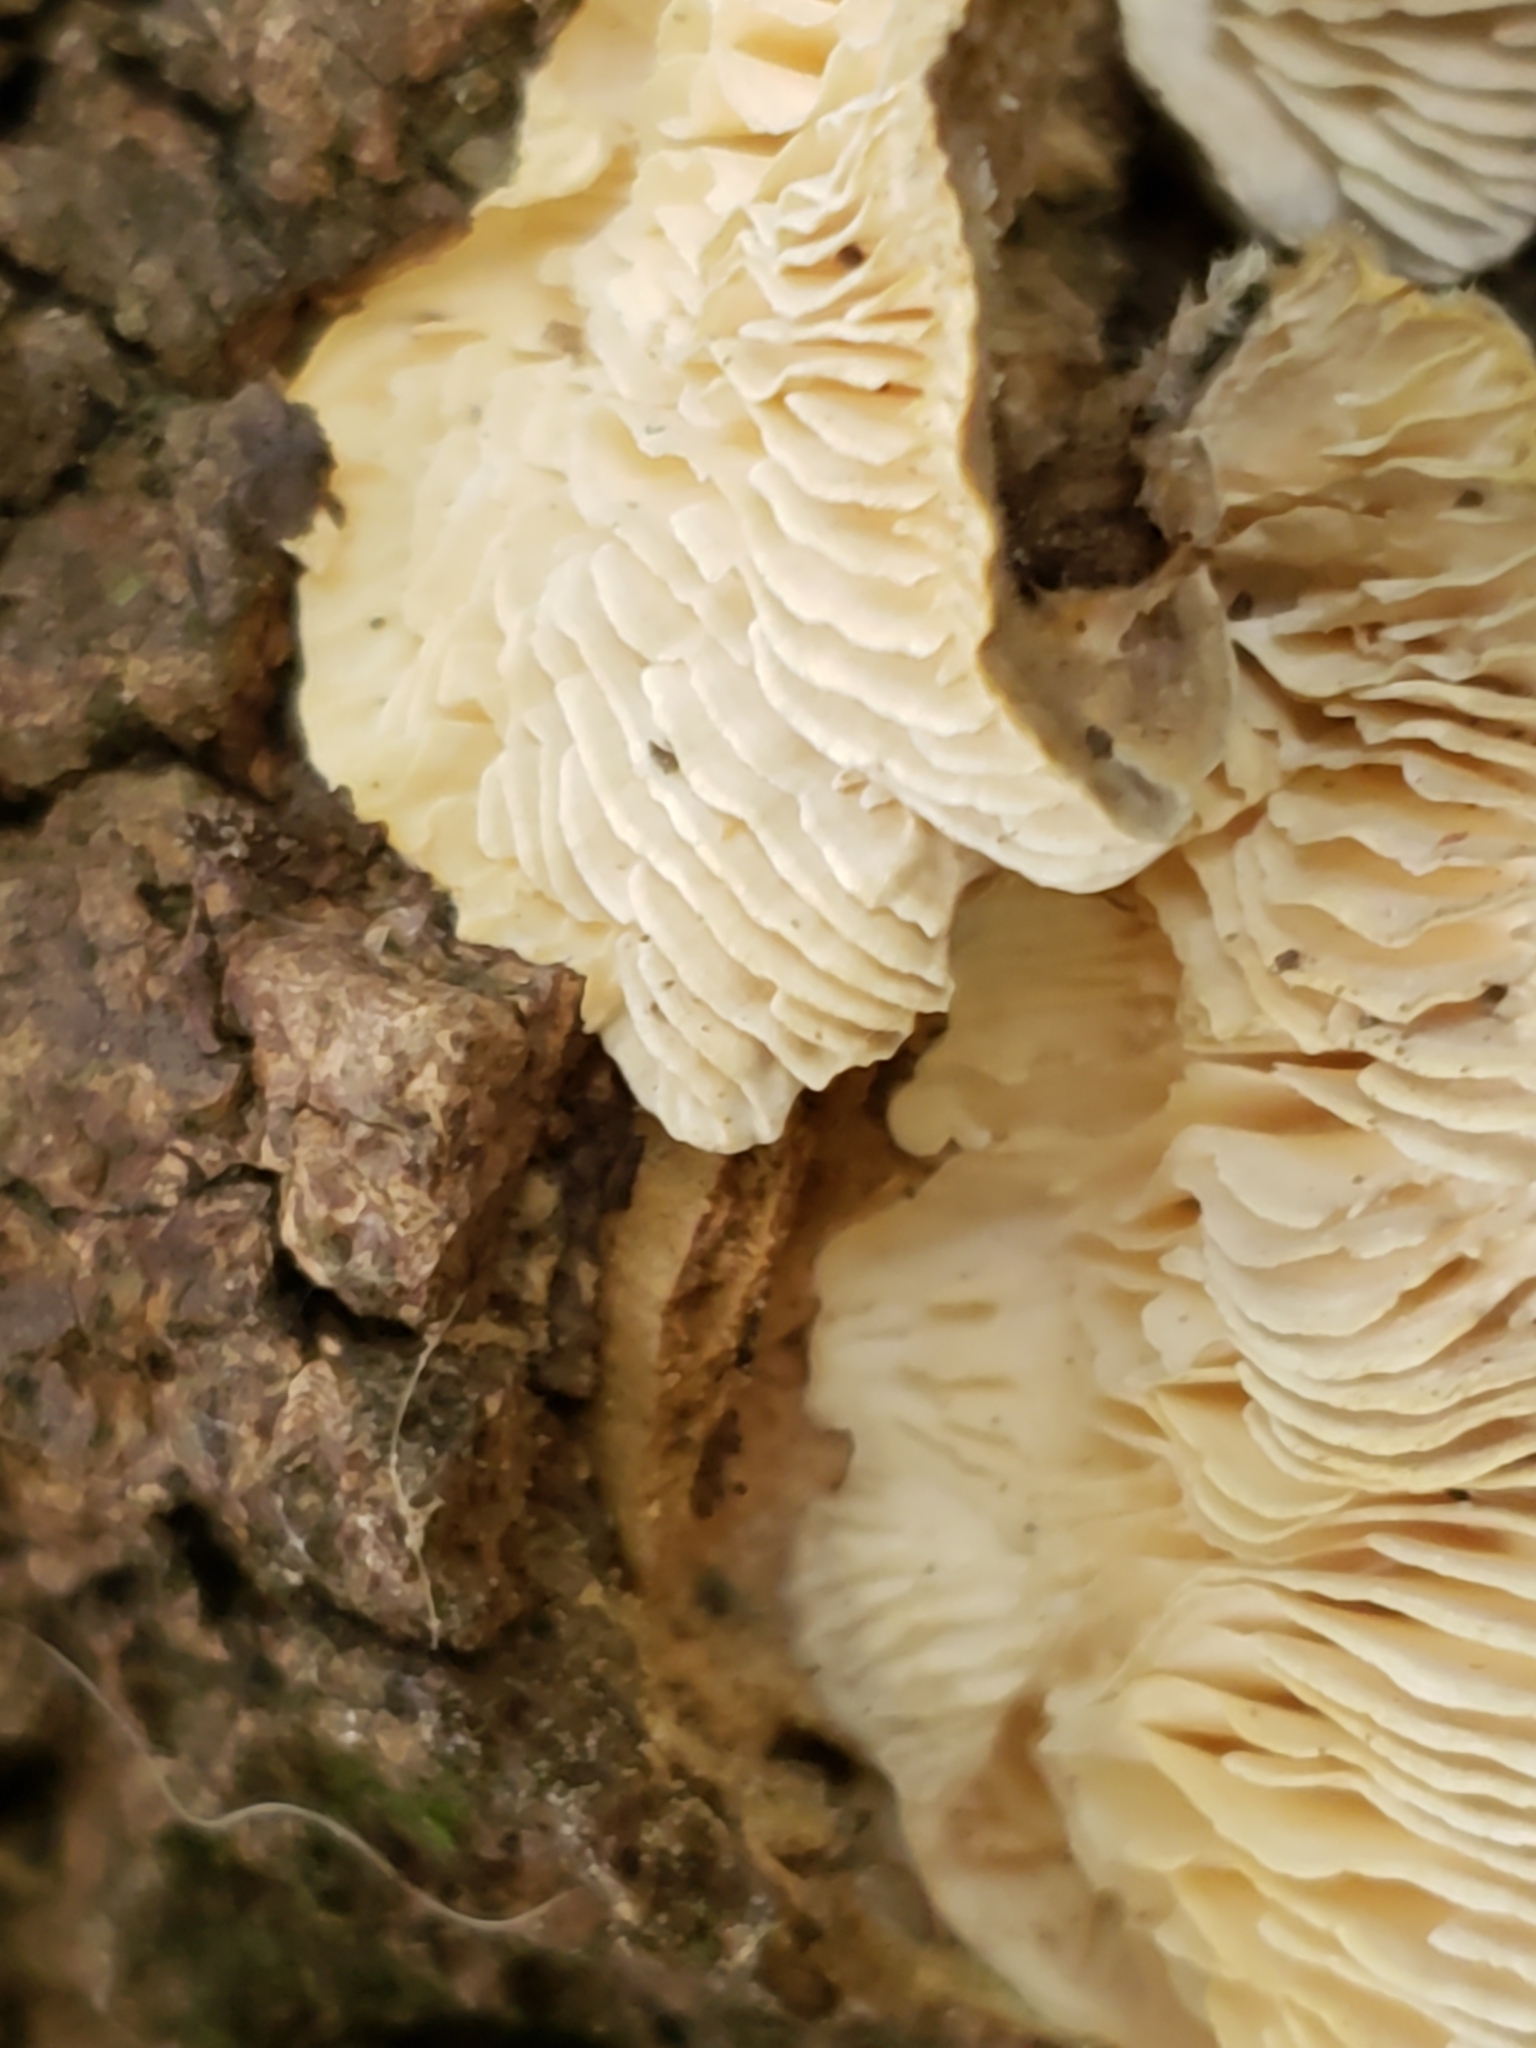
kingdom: Fungi
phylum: Basidiomycota
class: Agaricomycetes
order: Polyporales
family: Polyporaceae
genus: Lenzites
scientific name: Lenzites betulinus
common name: Birch mazegill
